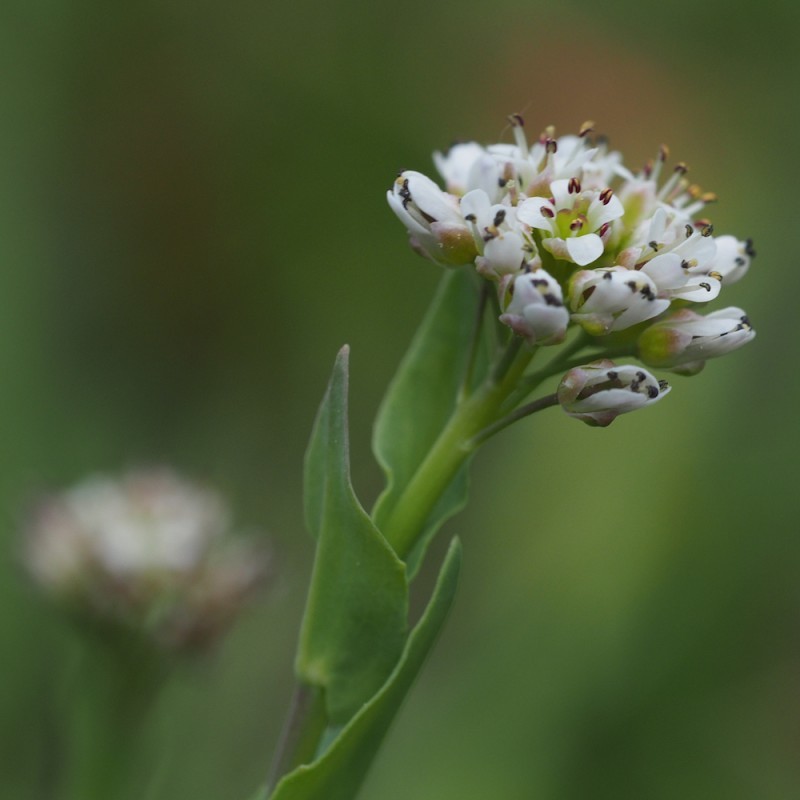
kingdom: Plantae
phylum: Tracheophyta
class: Magnoliopsida
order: Brassicales
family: Brassicaceae
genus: Noccaea
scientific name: Noccaea caerulescens
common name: Alpine pennycress
